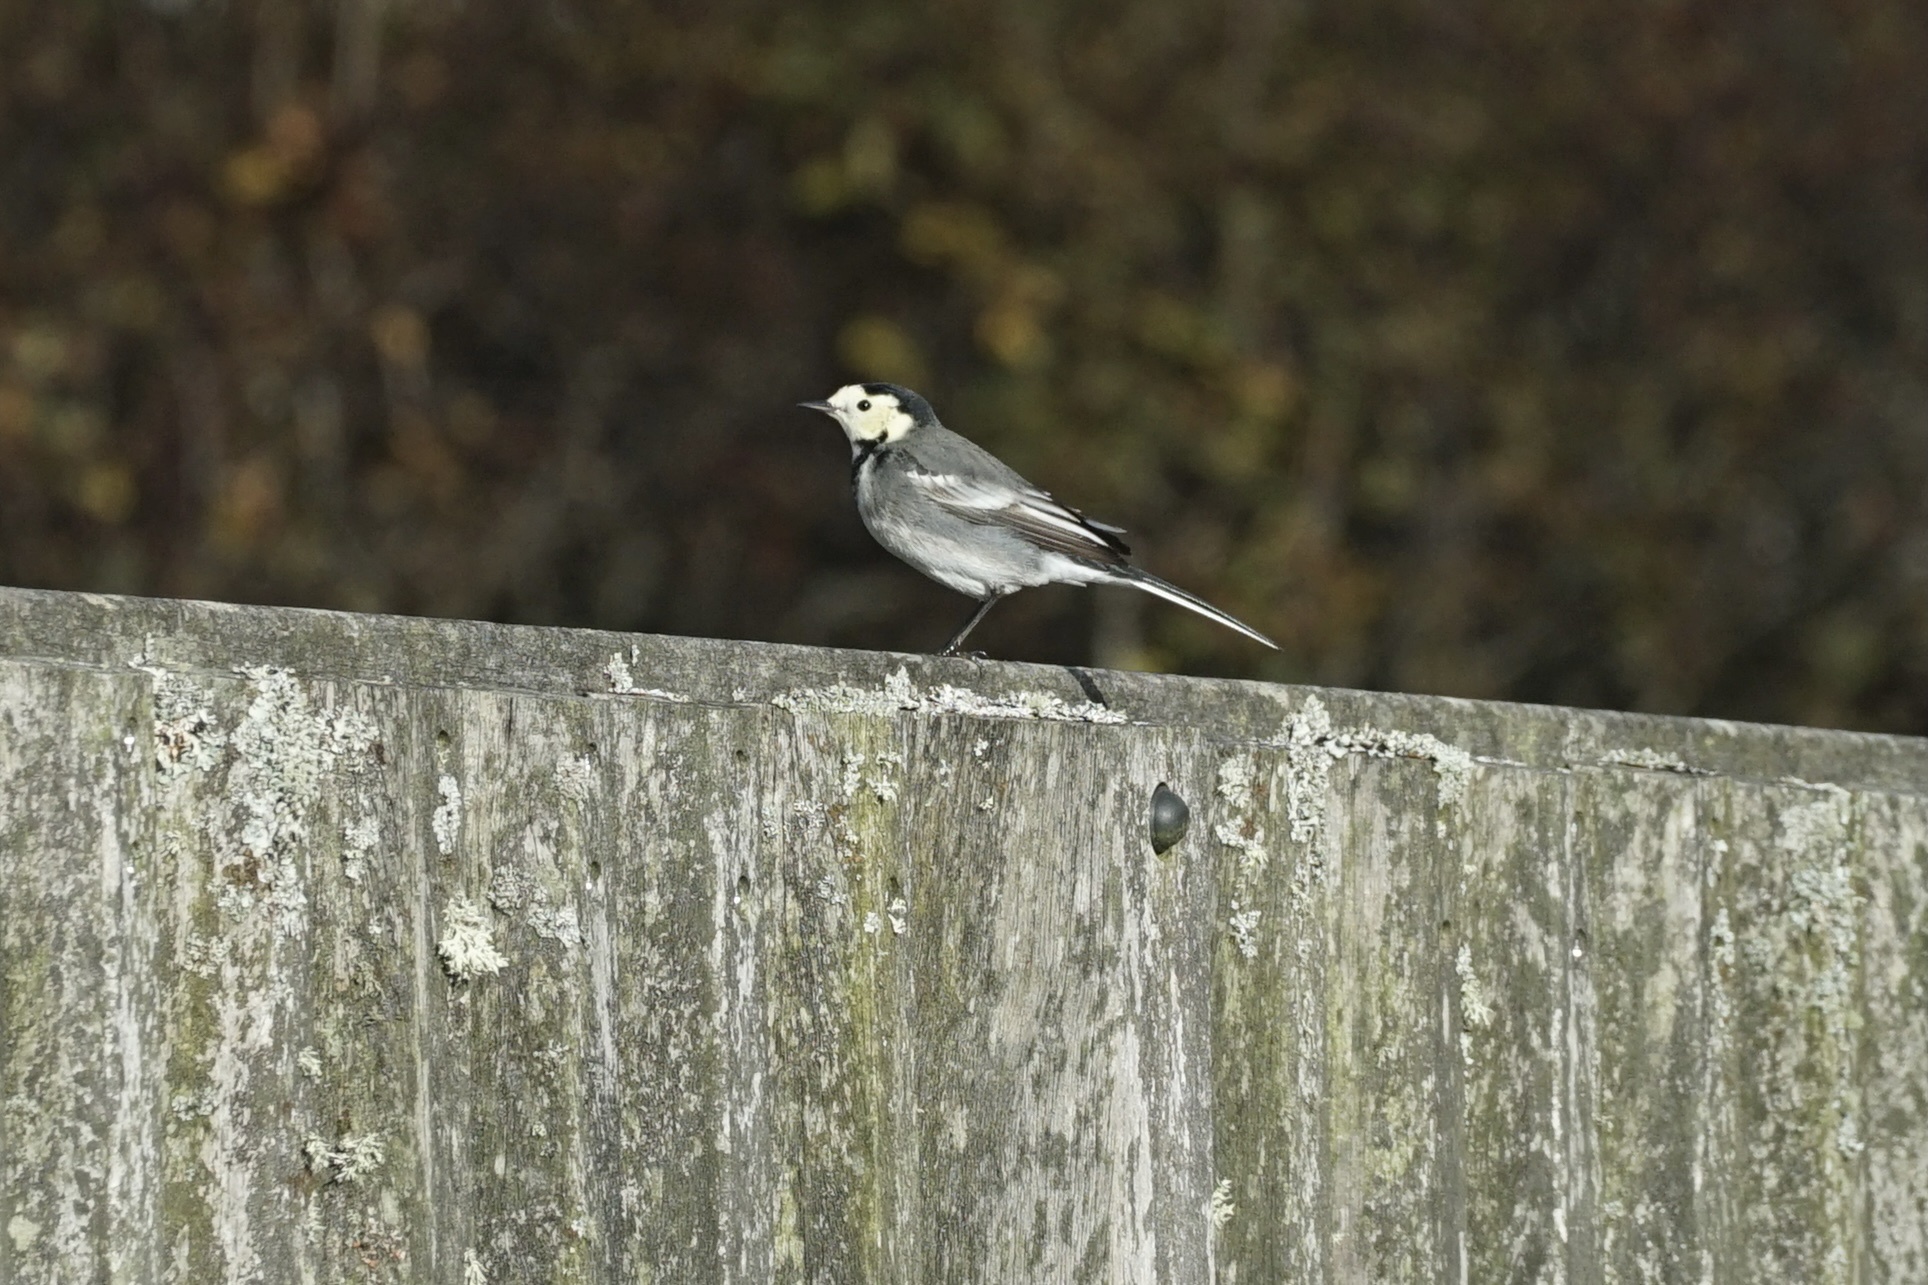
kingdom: Animalia
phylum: Chordata
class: Aves
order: Passeriformes
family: Motacillidae
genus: Motacilla
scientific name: Motacilla alba
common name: White wagtail
